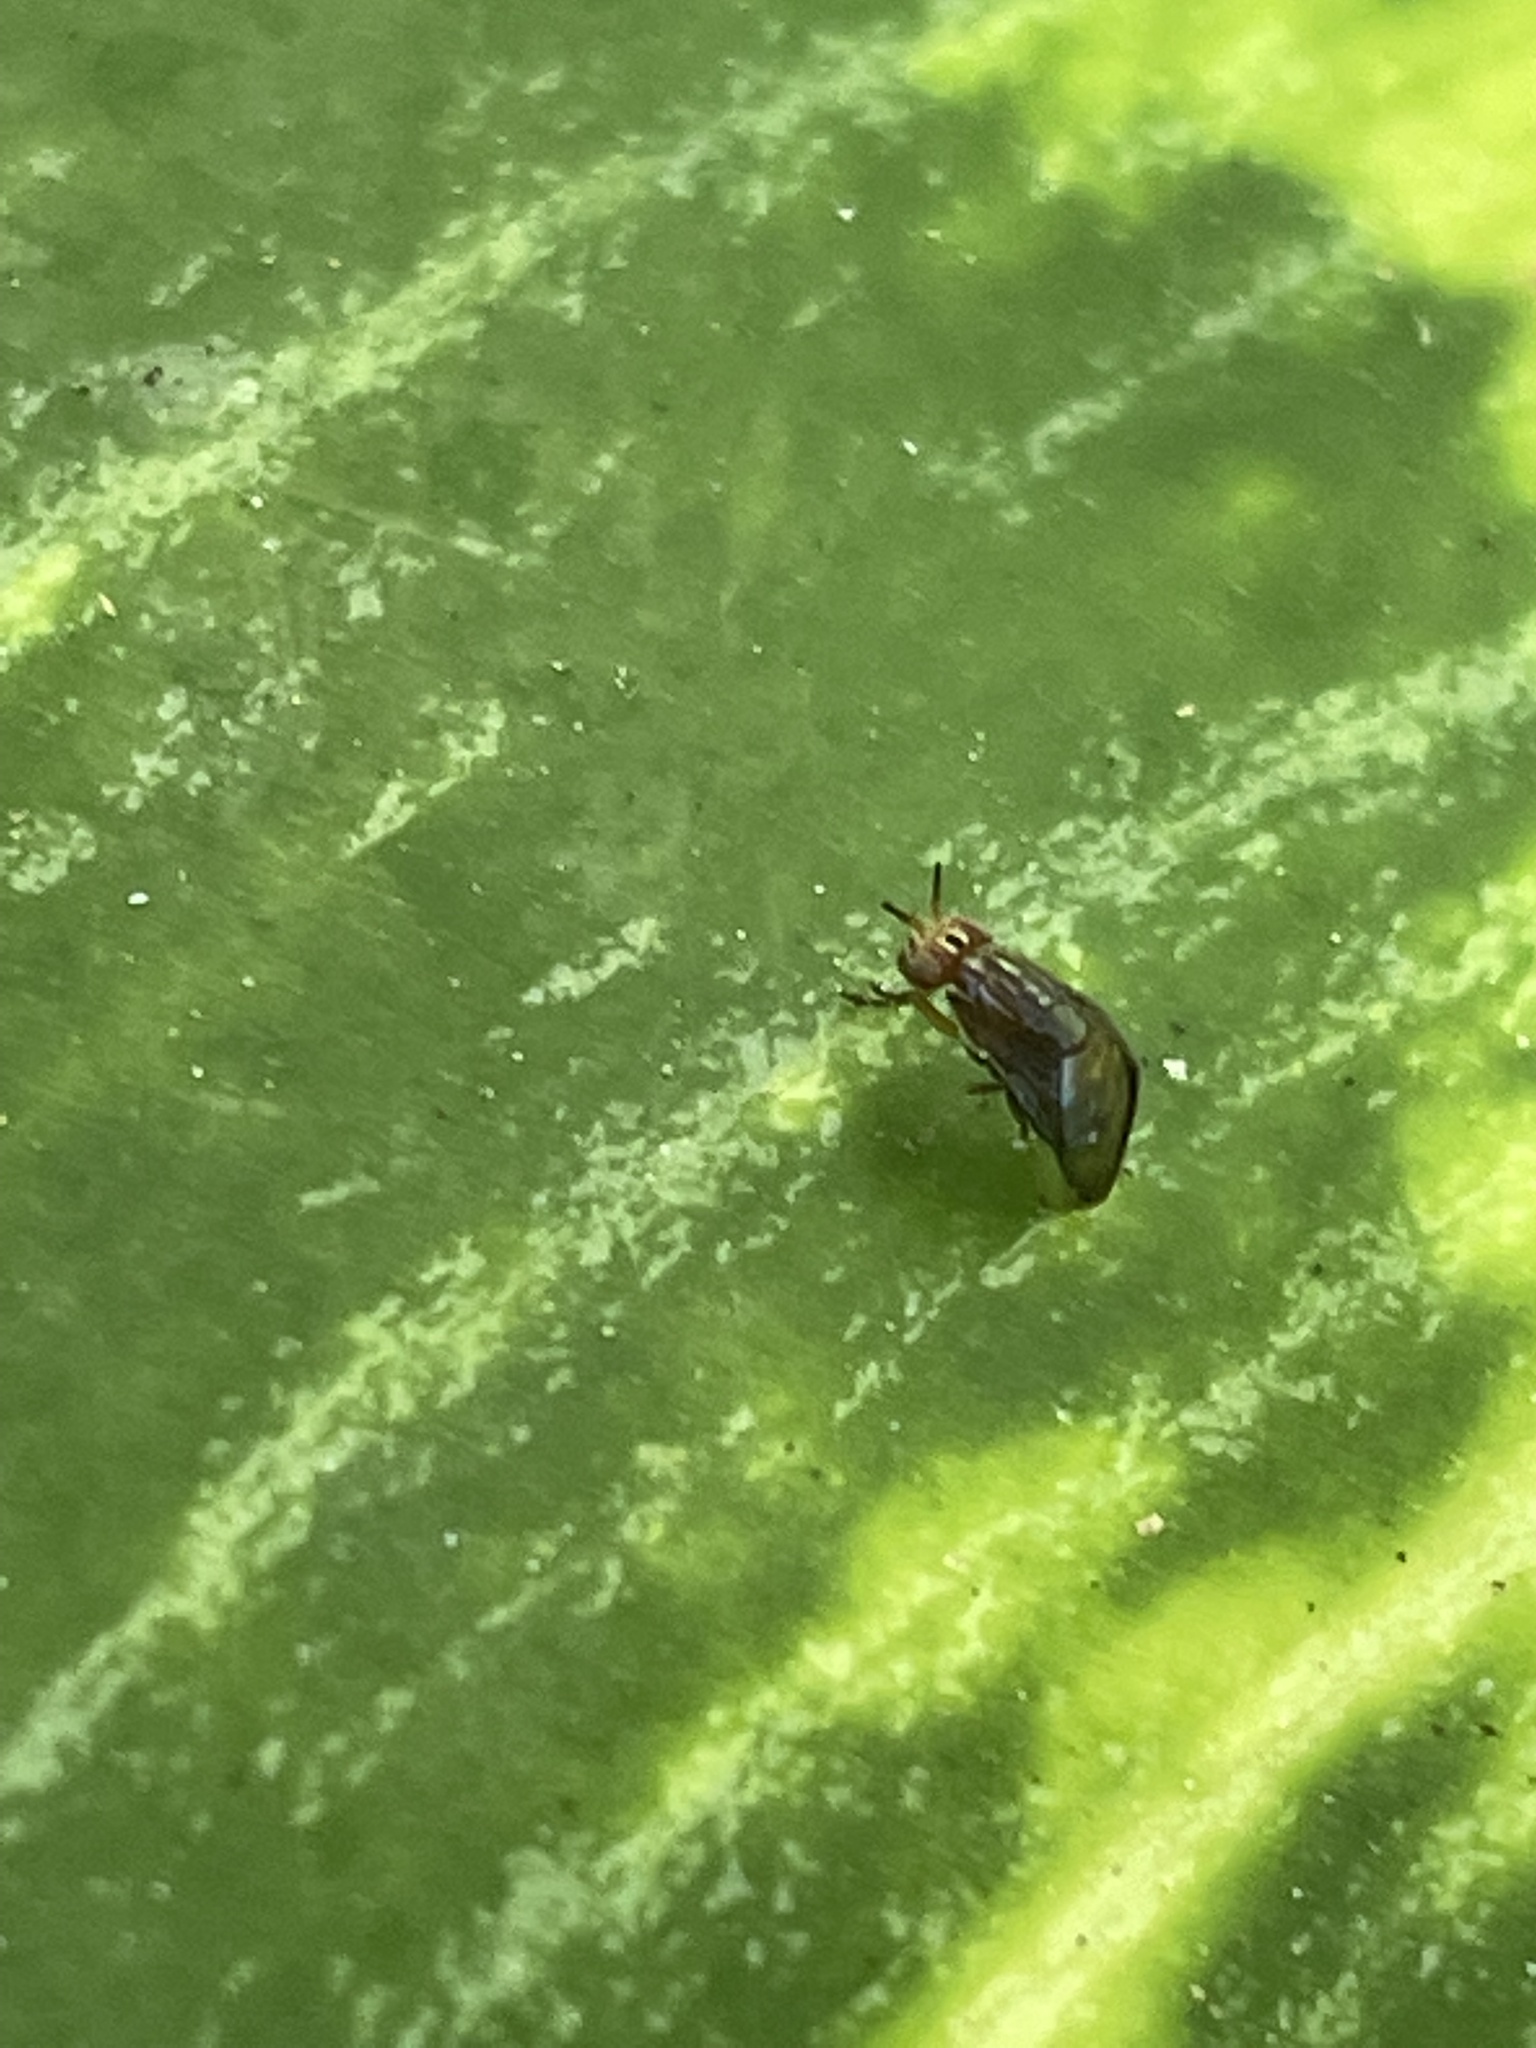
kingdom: Animalia
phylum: Arthropoda
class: Insecta
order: Diptera
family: Lauxaniidae
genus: Steganopsis
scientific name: Steganopsis melanogaster
